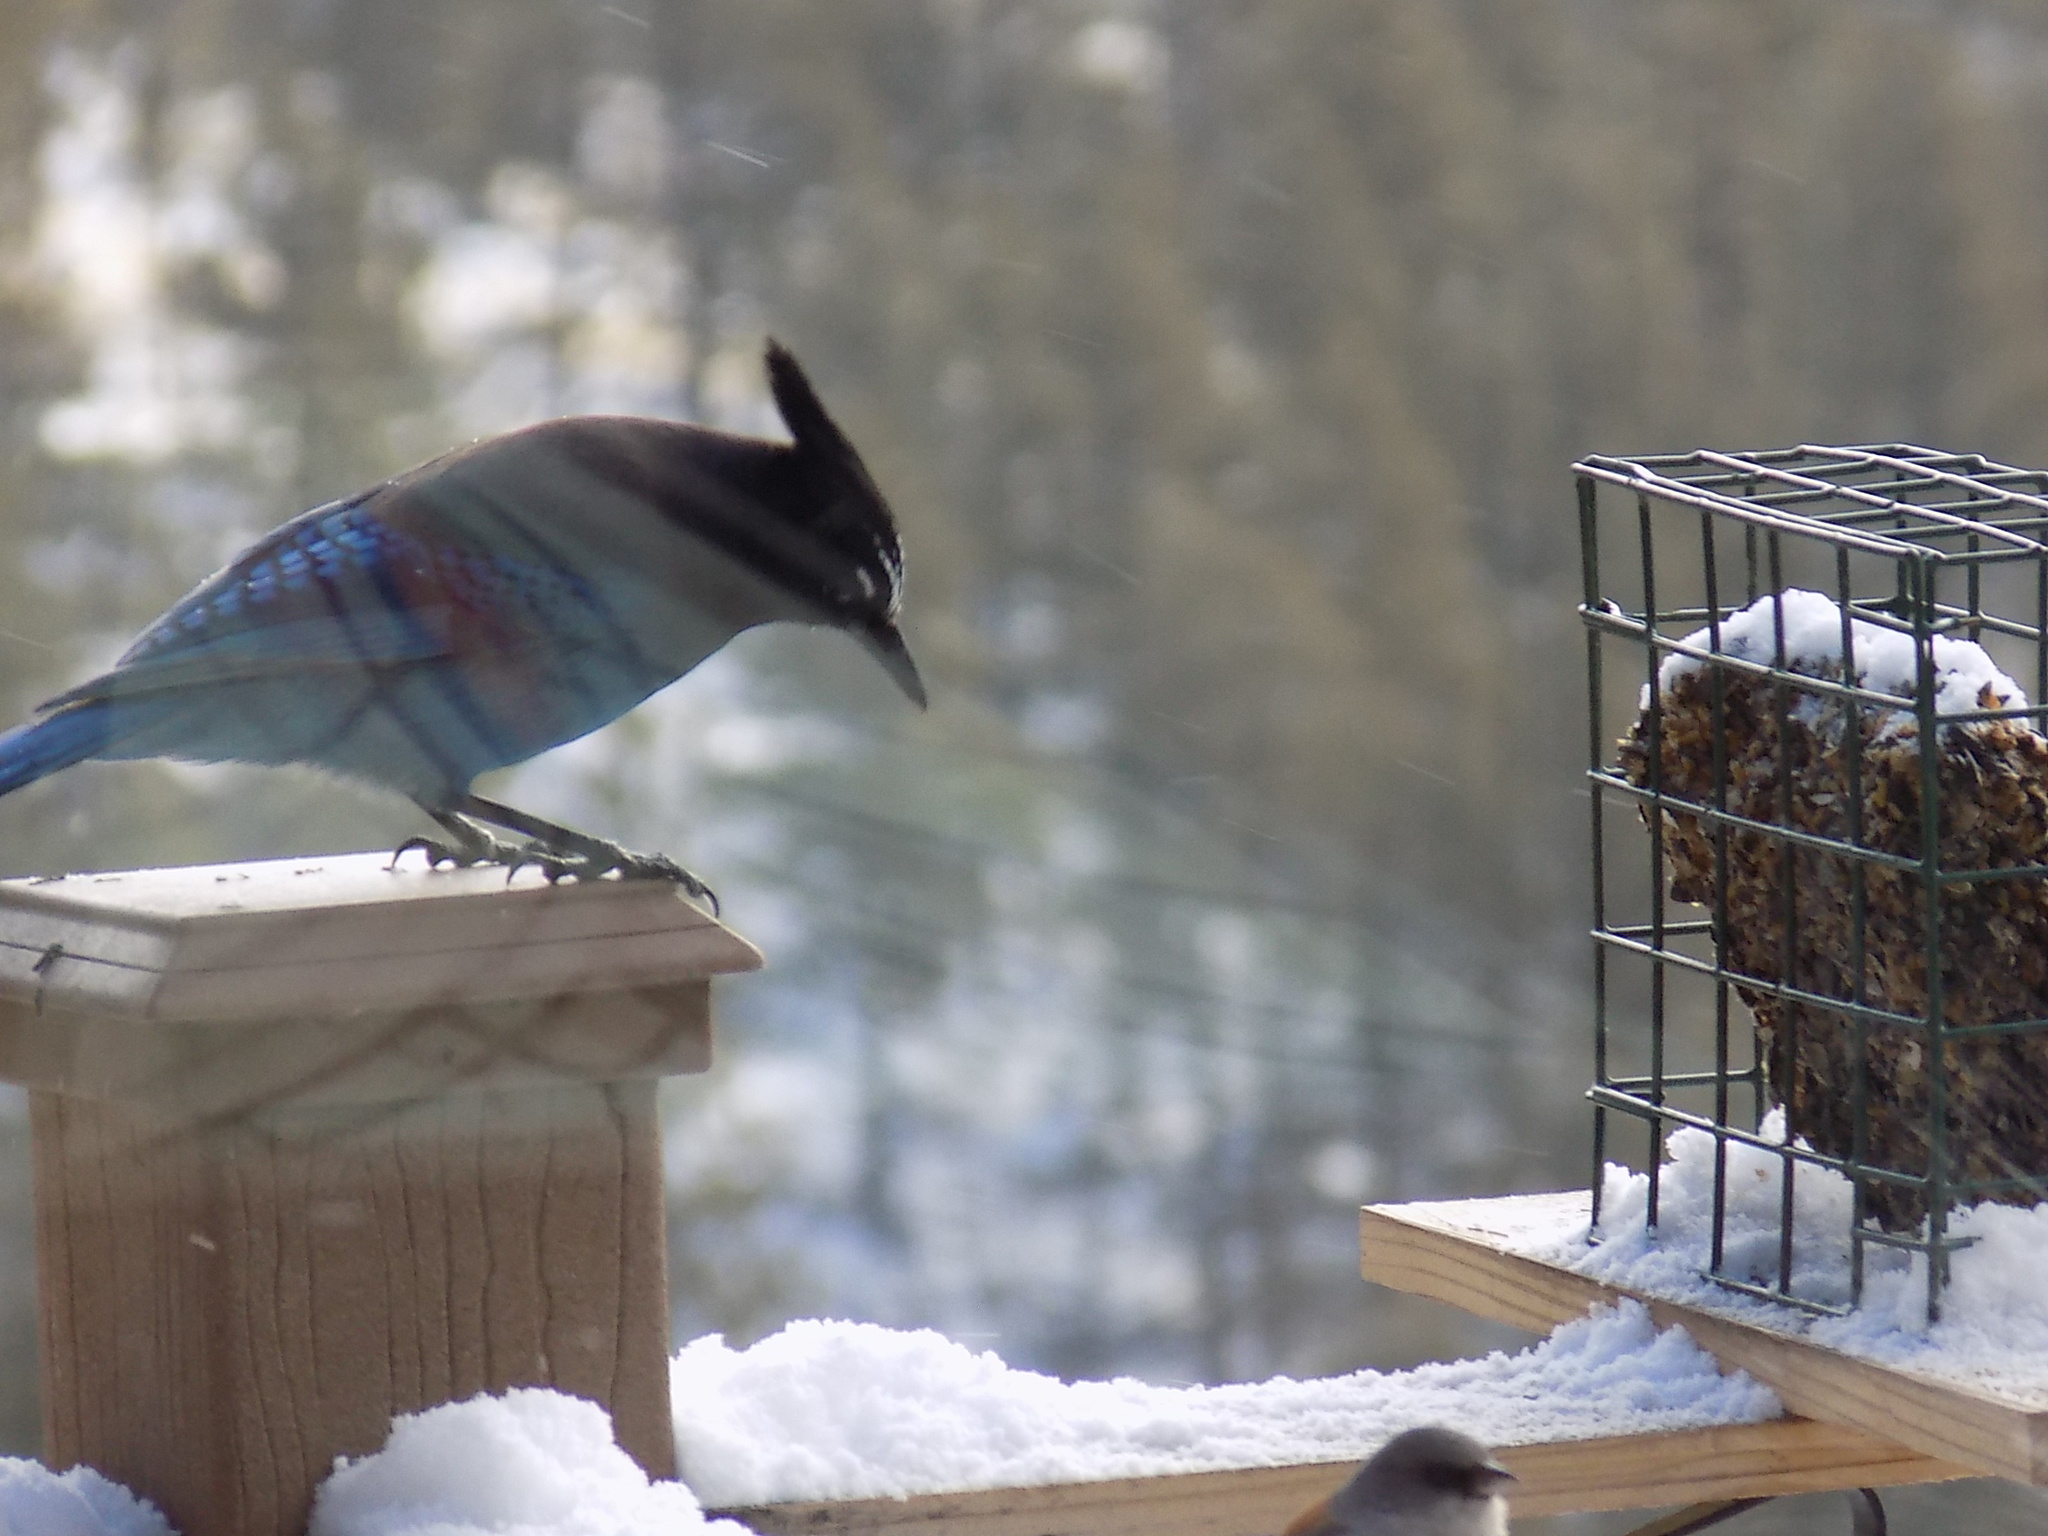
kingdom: Animalia
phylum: Chordata
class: Aves
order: Passeriformes
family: Corvidae
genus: Cyanocitta
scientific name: Cyanocitta stelleri
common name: Steller's jay
